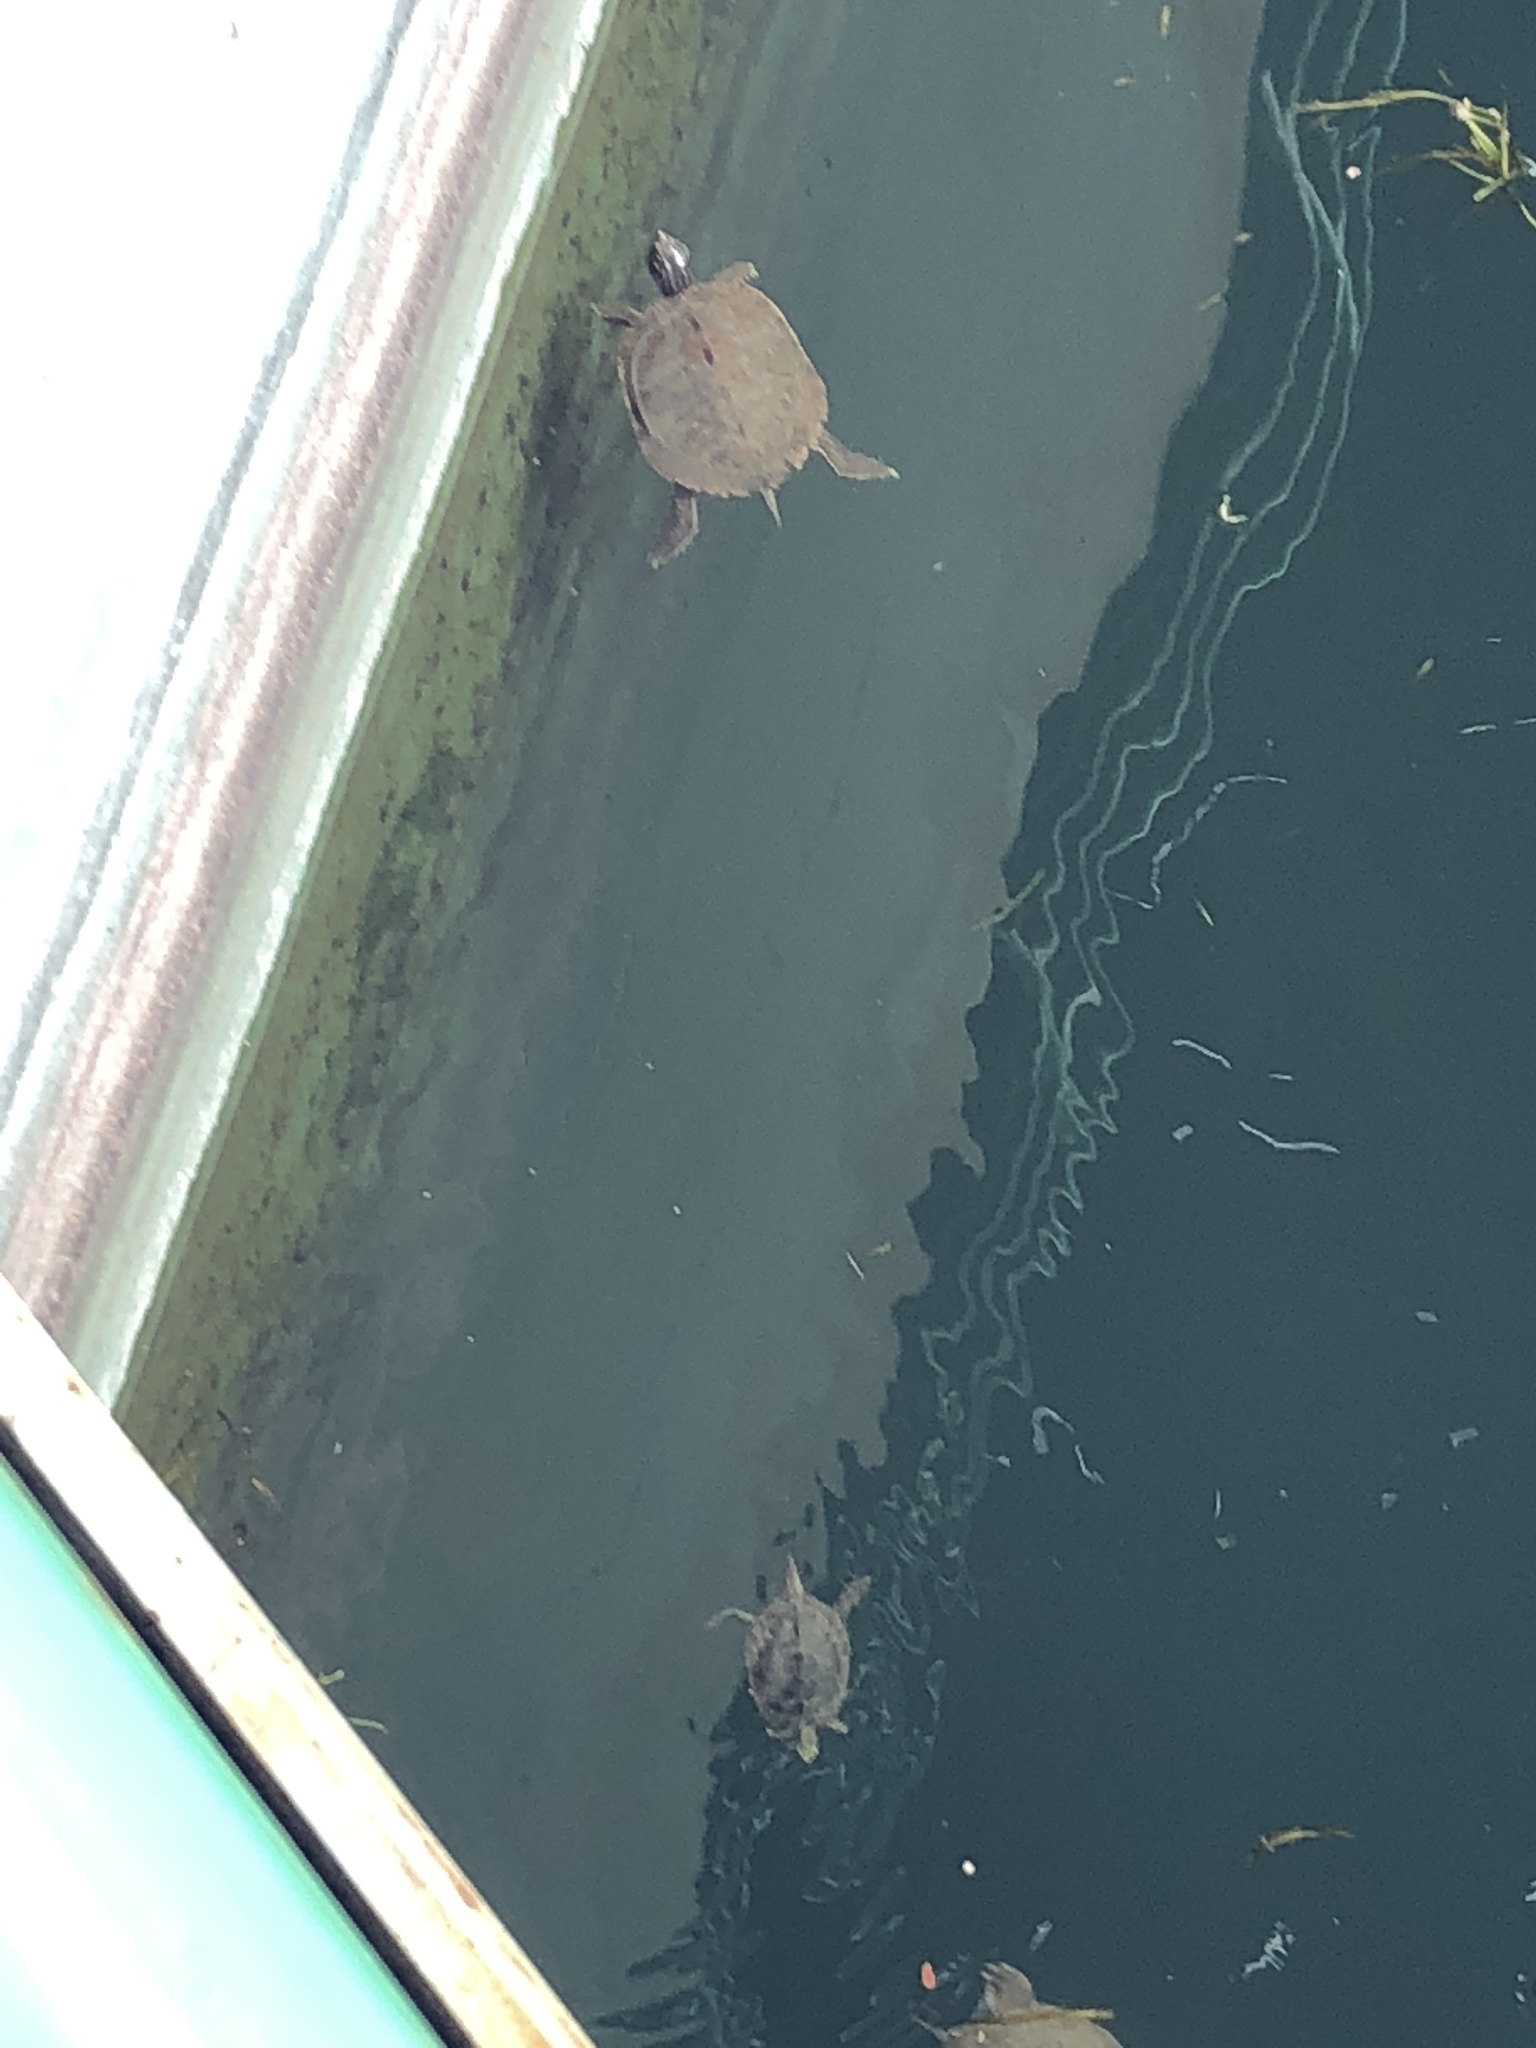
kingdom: Animalia
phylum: Chordata
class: Testudines
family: Emydidae
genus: Graptemys
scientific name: Graptemys geographica
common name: Common map turtle
